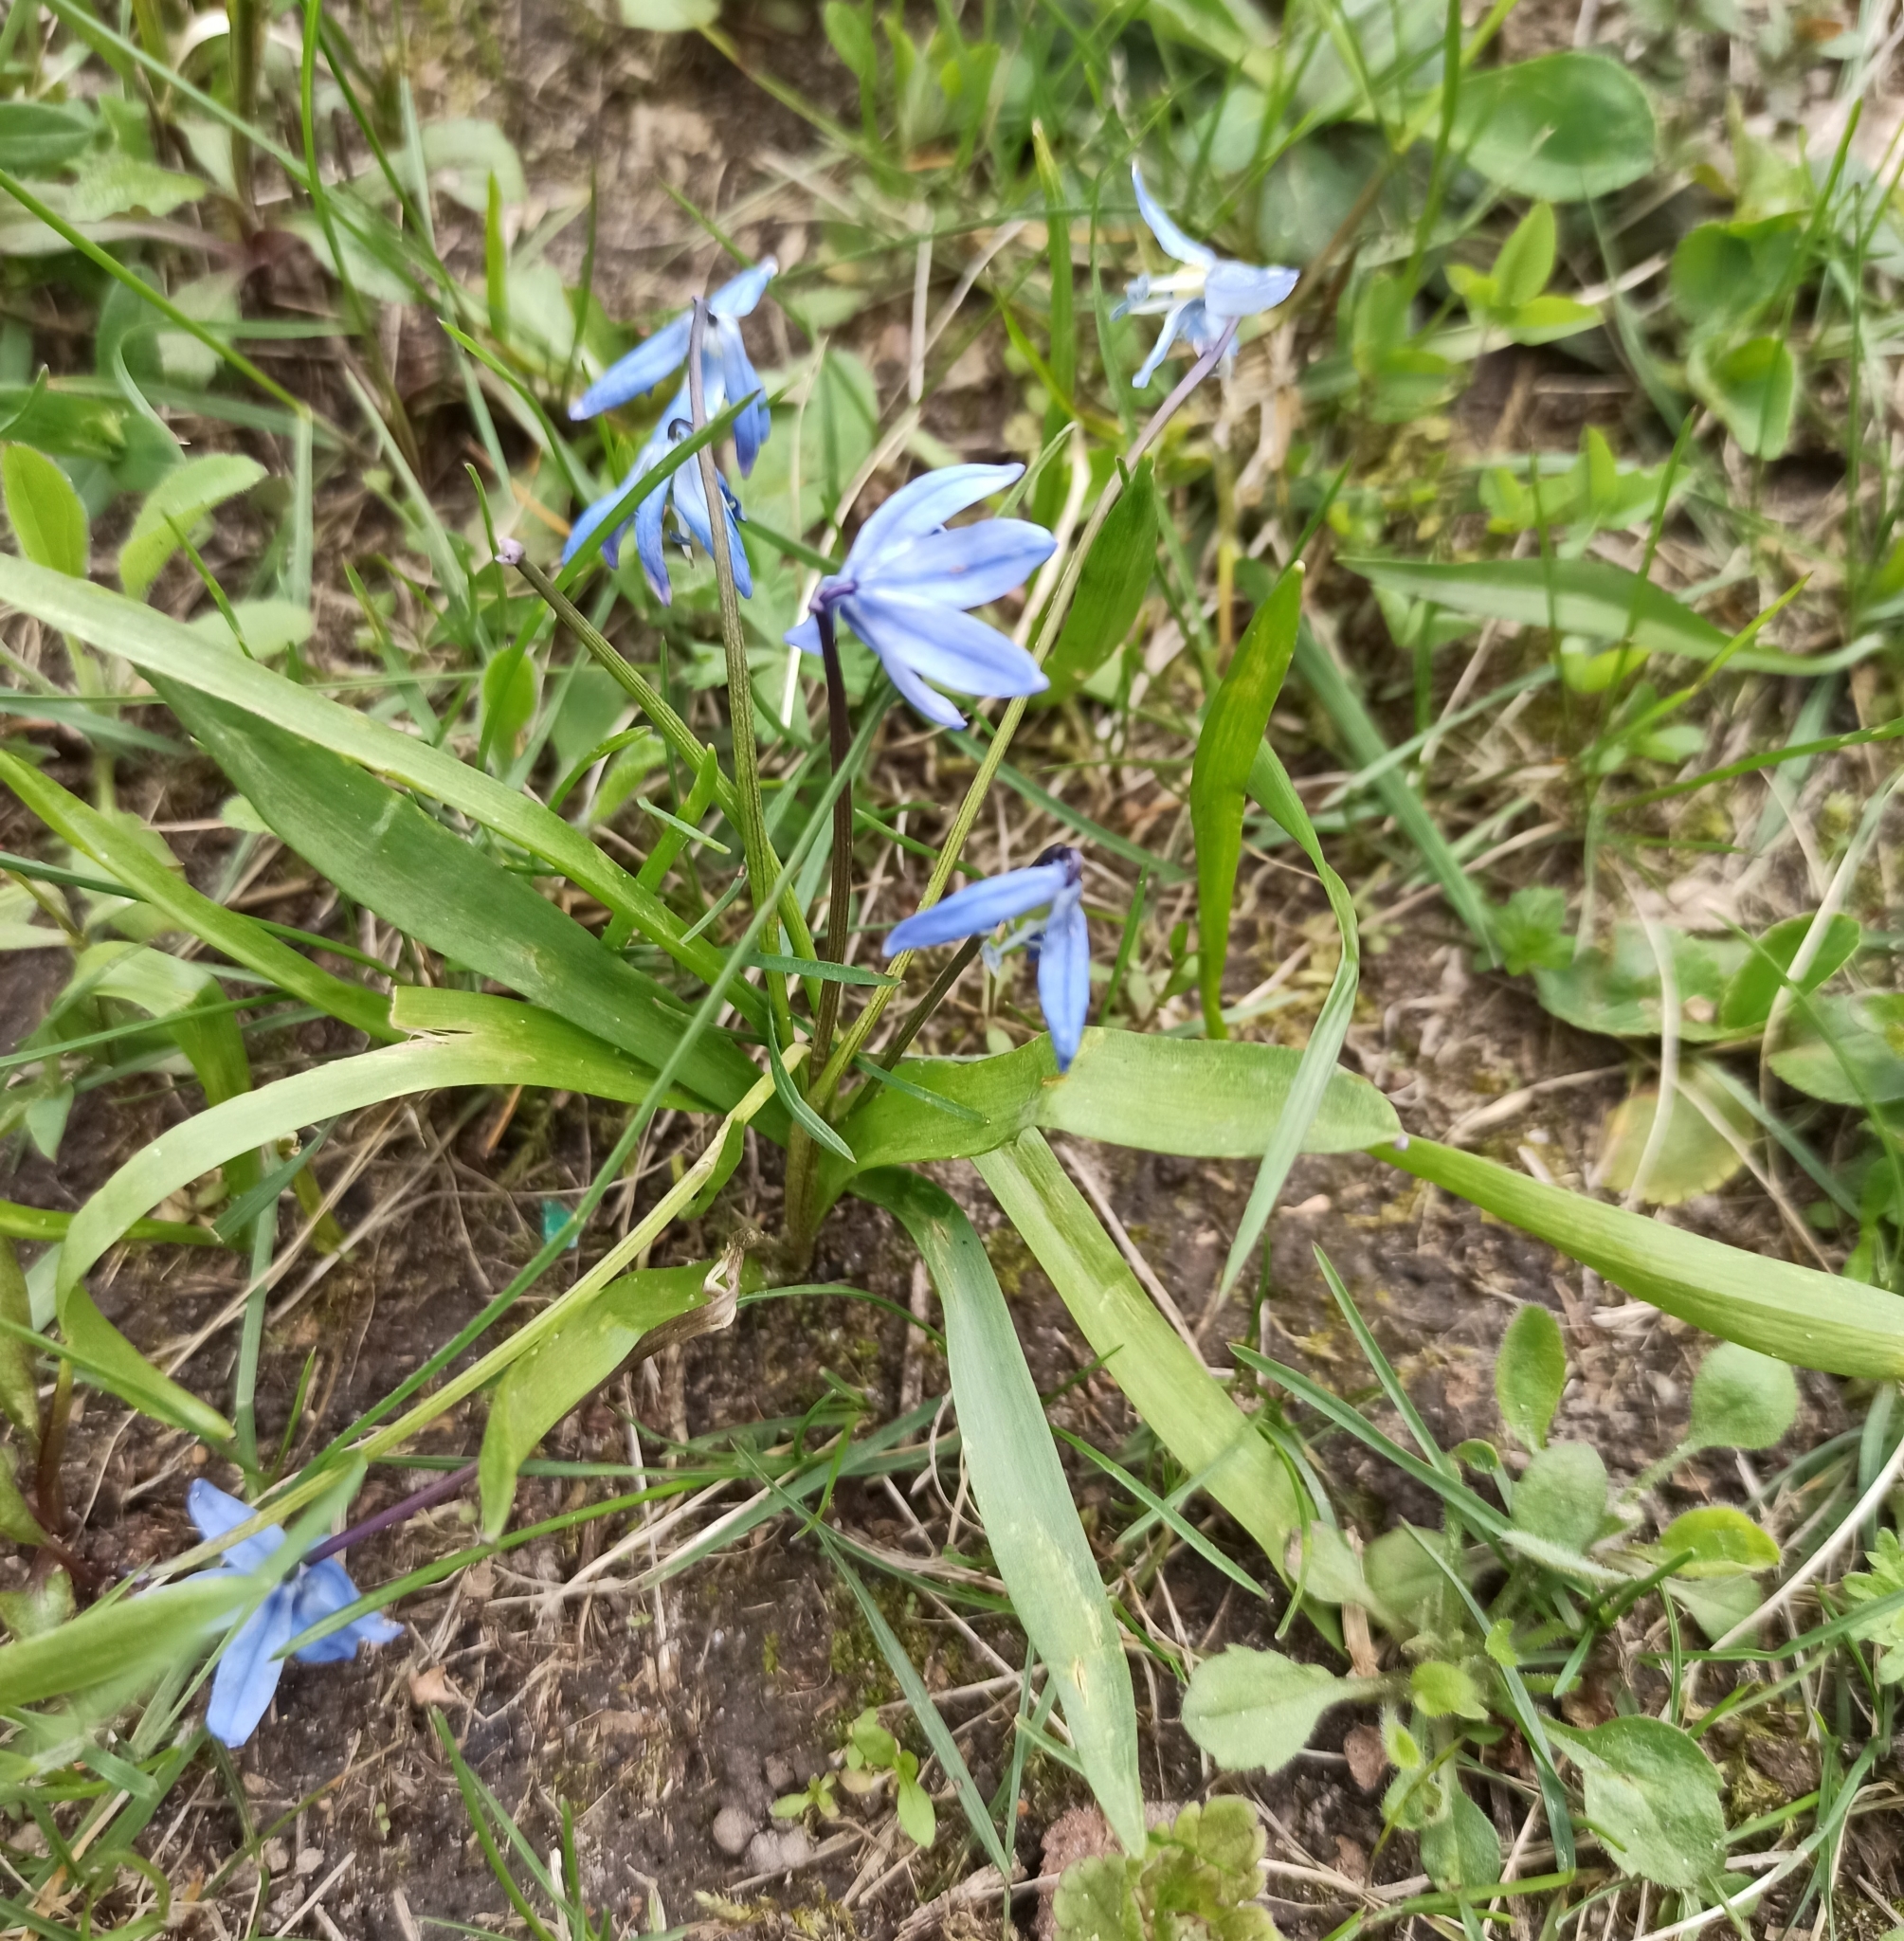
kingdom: Plantae
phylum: Tracheophyta
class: Liliopsida
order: Asparagales
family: Asparagaceae
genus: Scilla
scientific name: Scilla siberica
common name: Siberian squill
